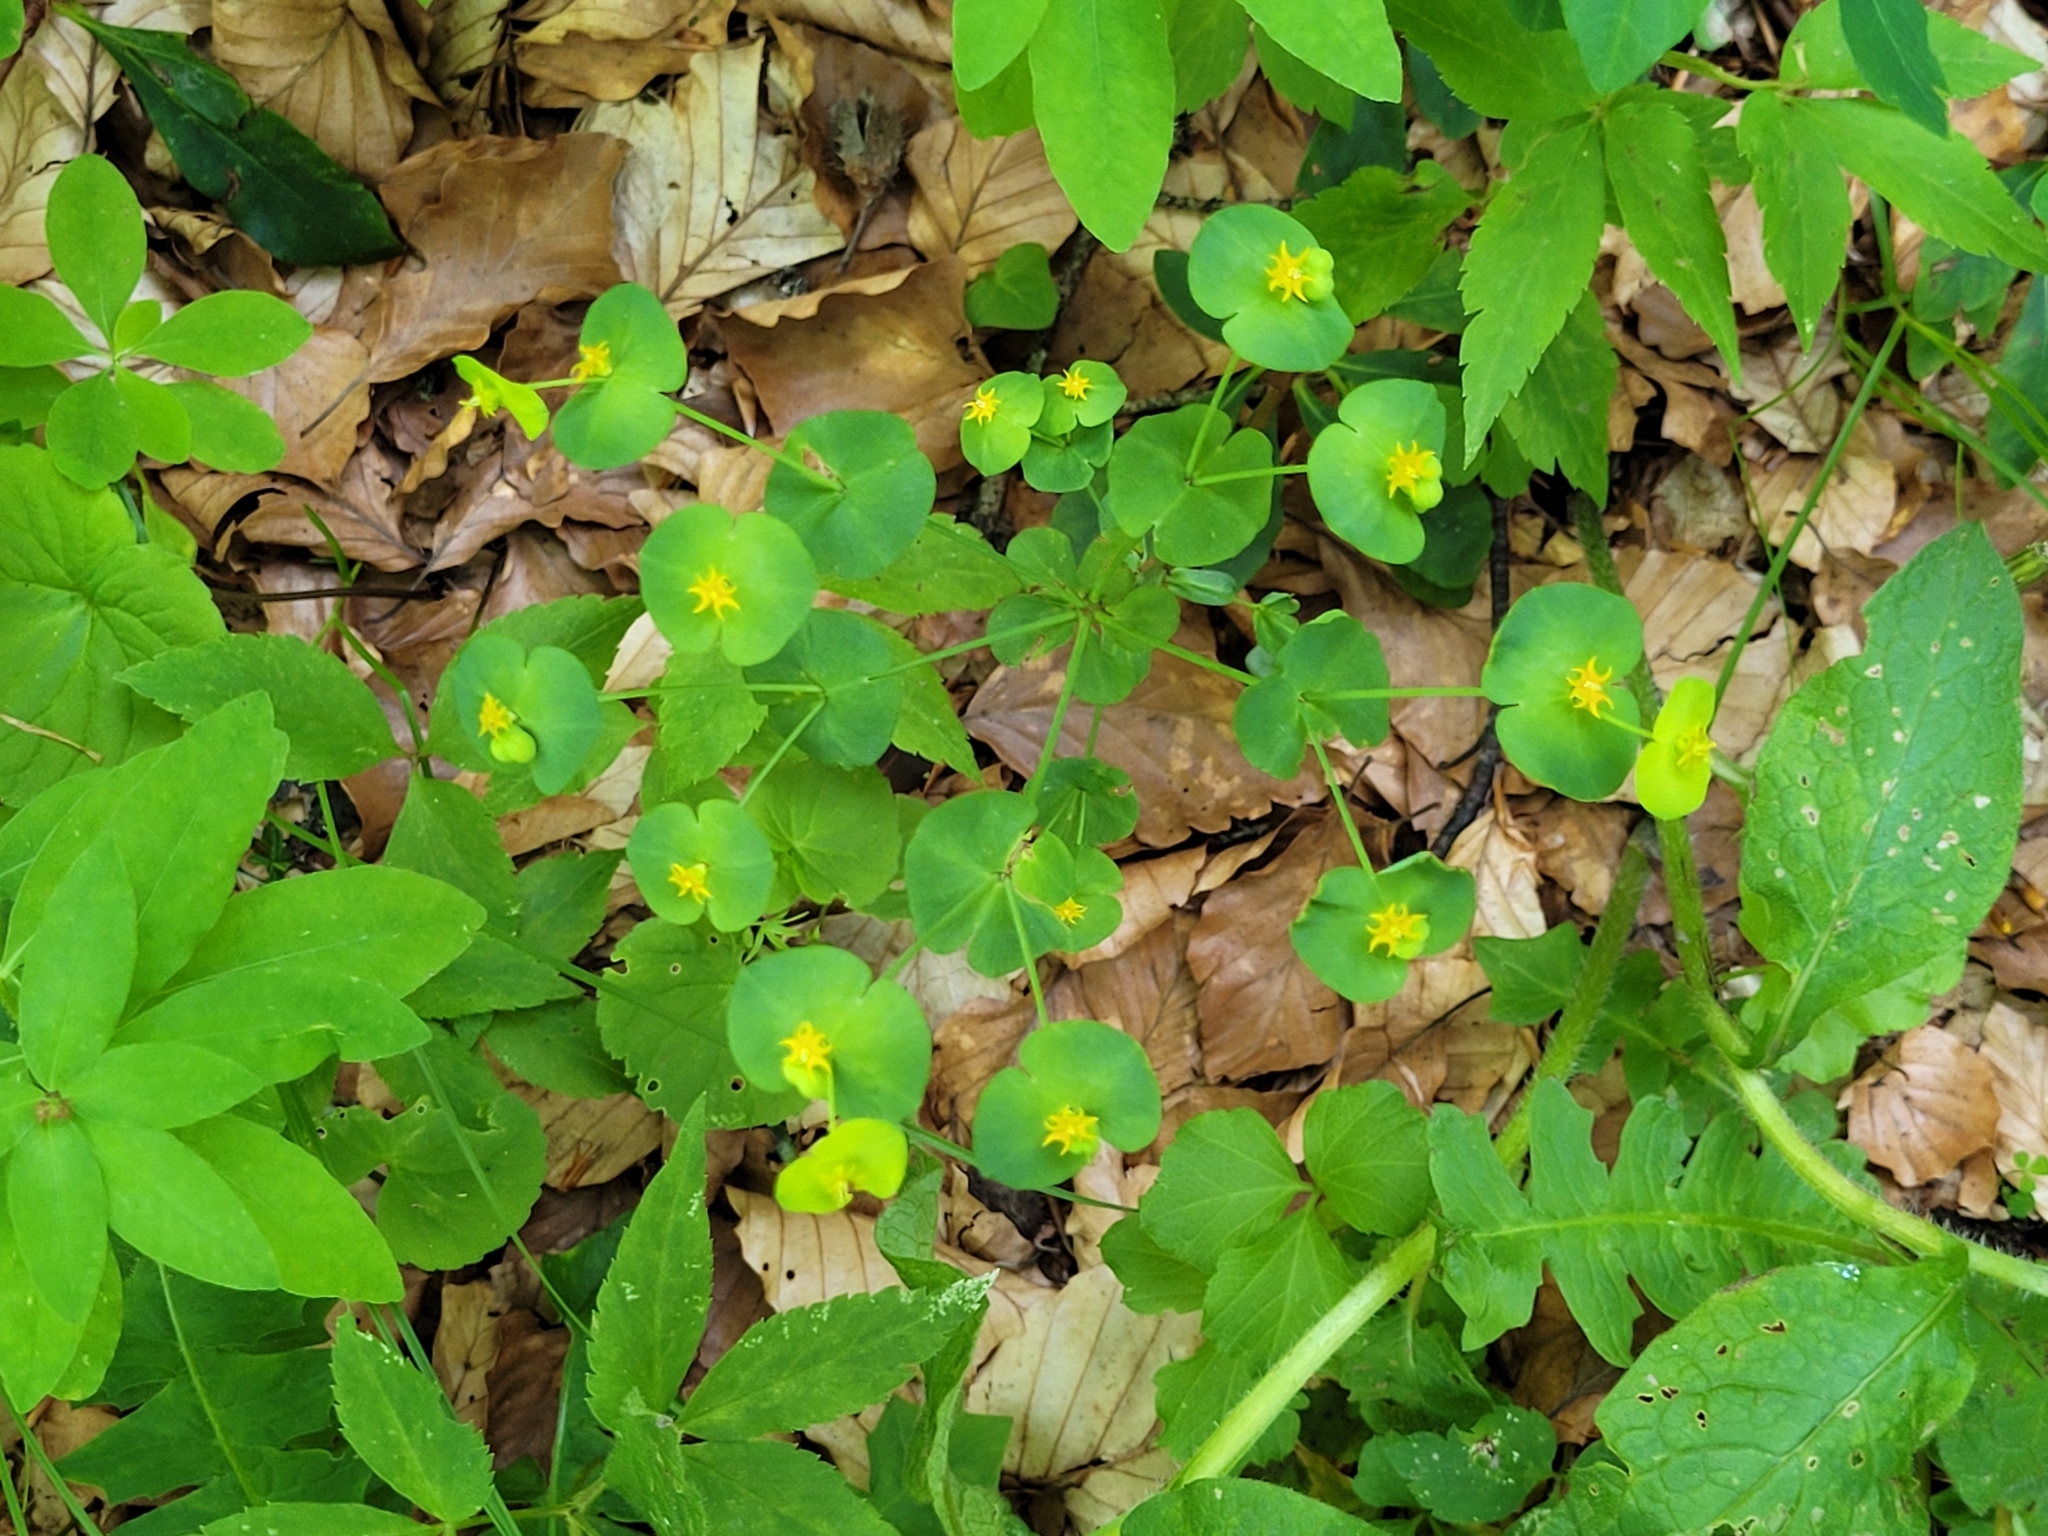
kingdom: Plantae
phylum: Tracheophyta
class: Magnoliopsida
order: Malpighiales
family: Euphorbiaceae
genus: Euphorbia
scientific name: Euphorbia amygdaloides
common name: Wood spurge
